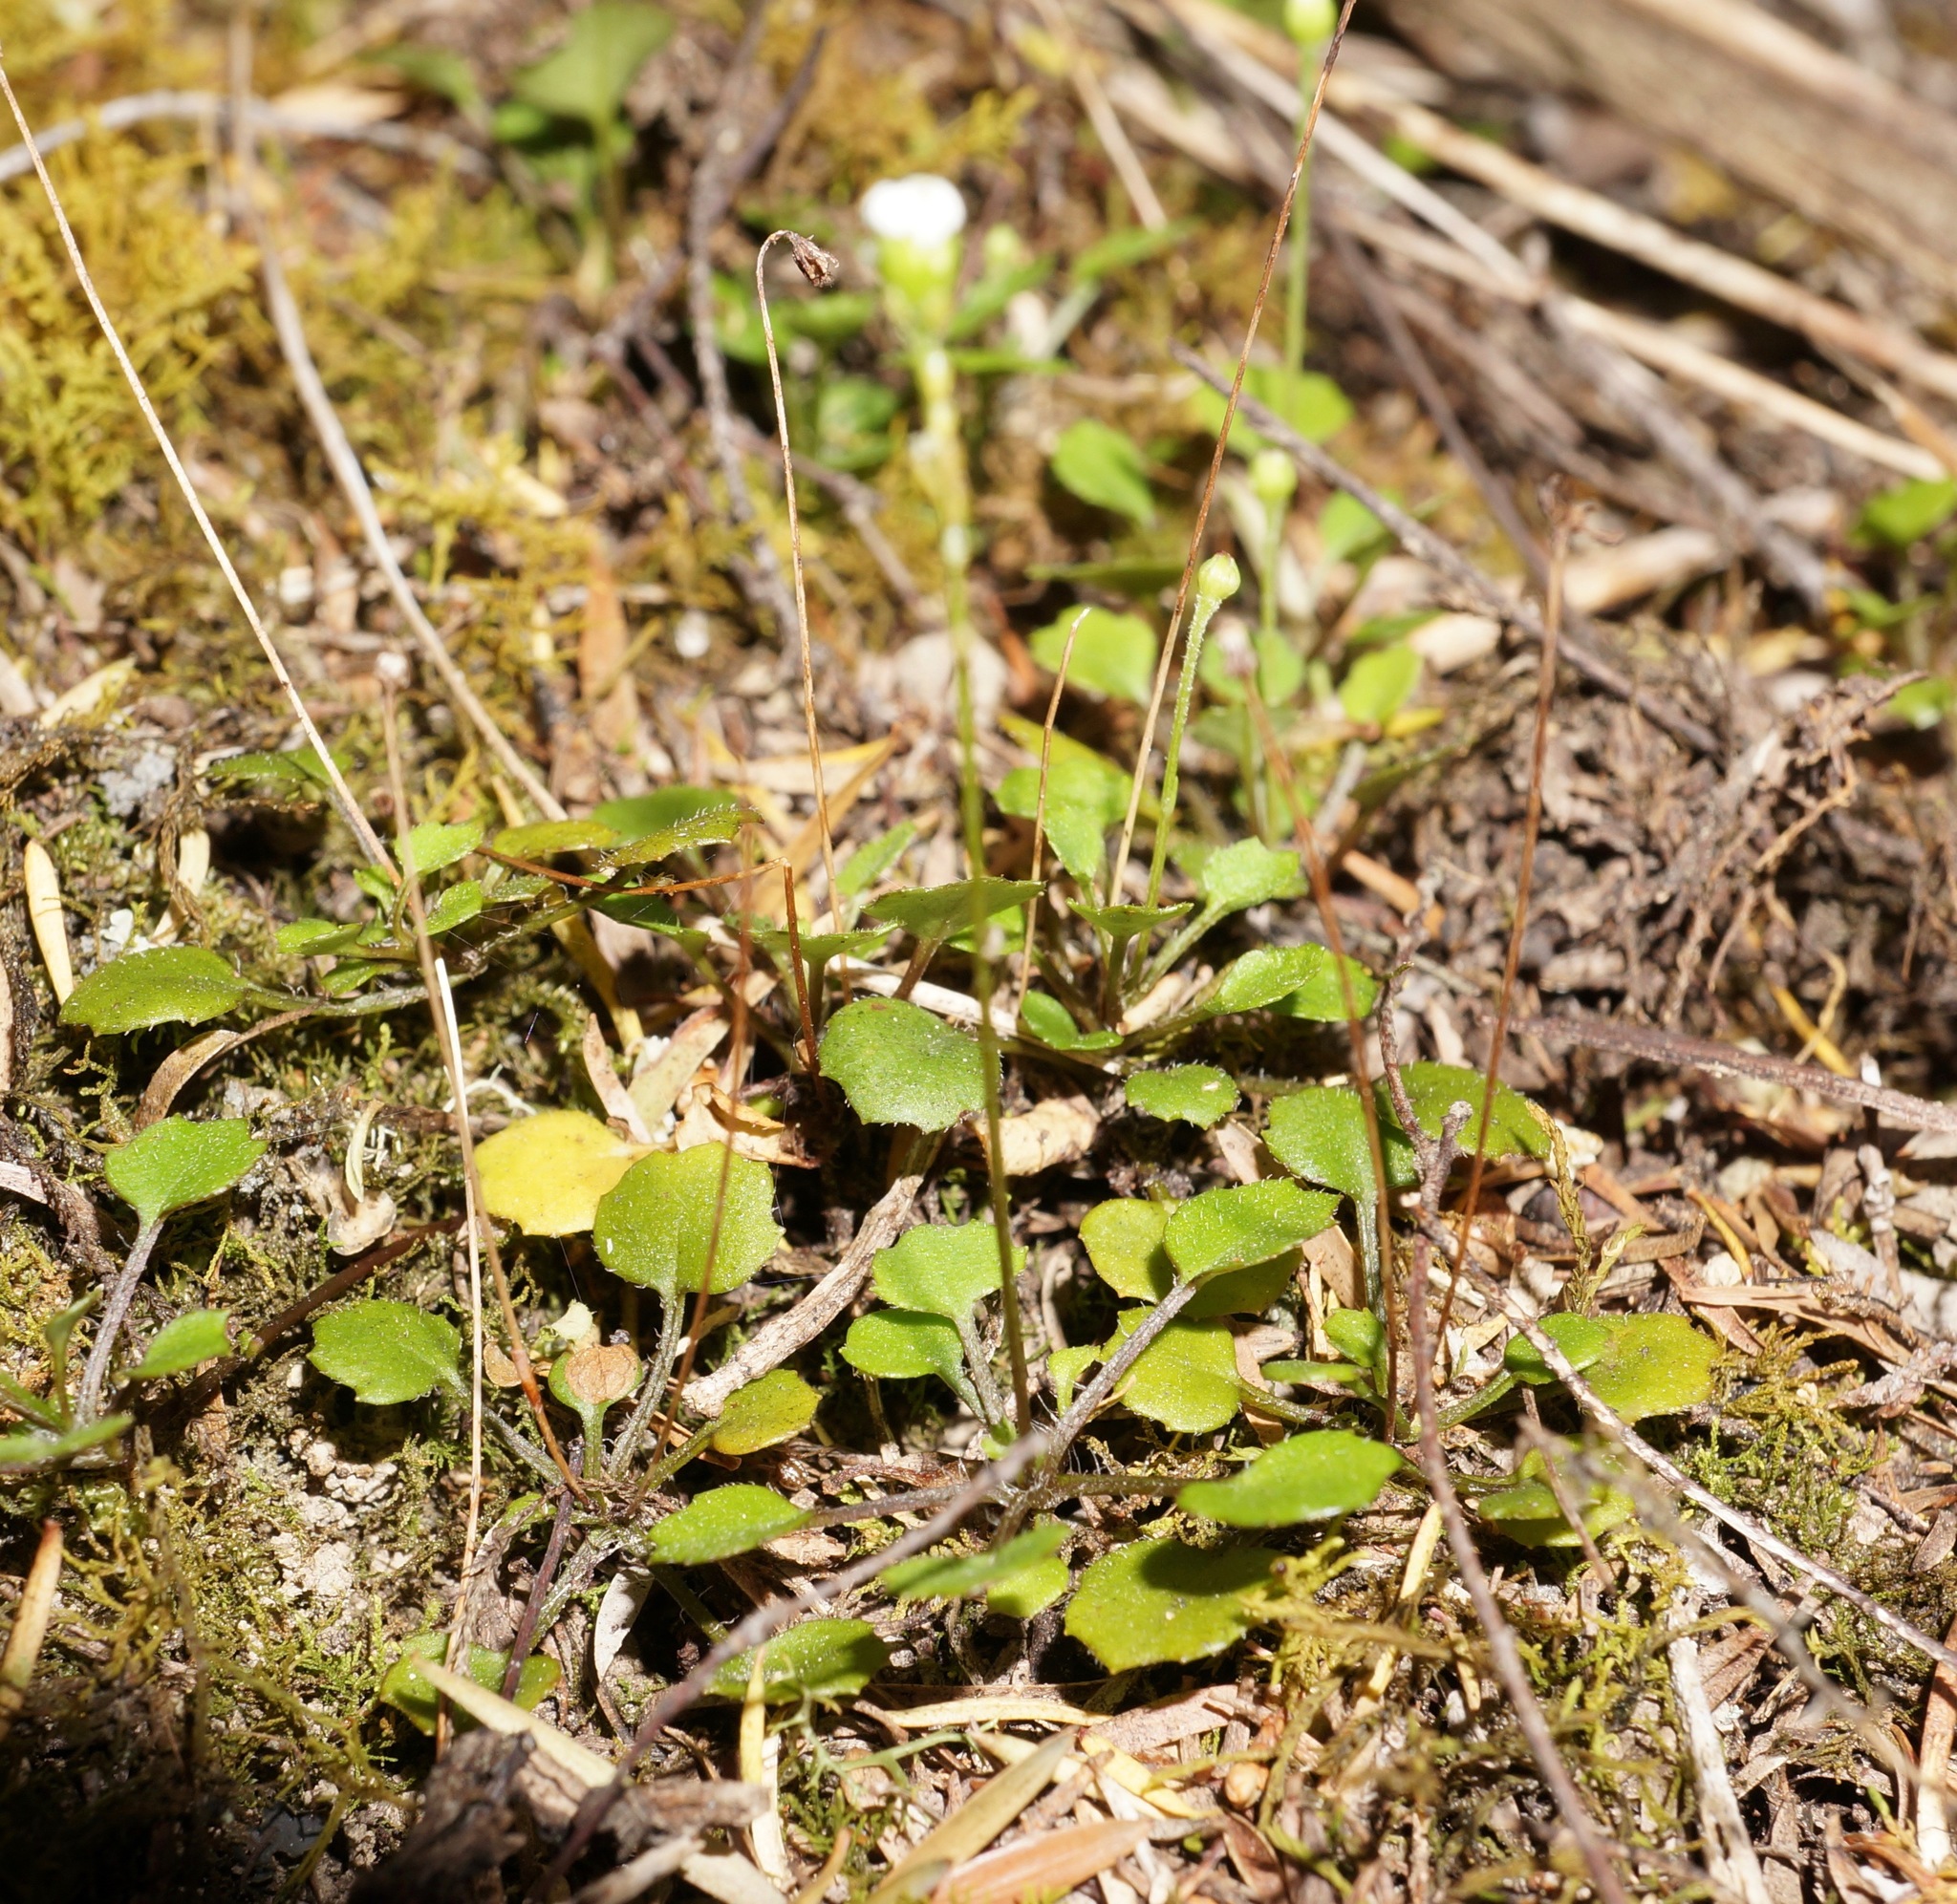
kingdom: Plantae
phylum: Tracheophyta
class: Magnoliopsida
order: Asterales
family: Asteraceae
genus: Lagenophora
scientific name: Lagenophora strangulata
